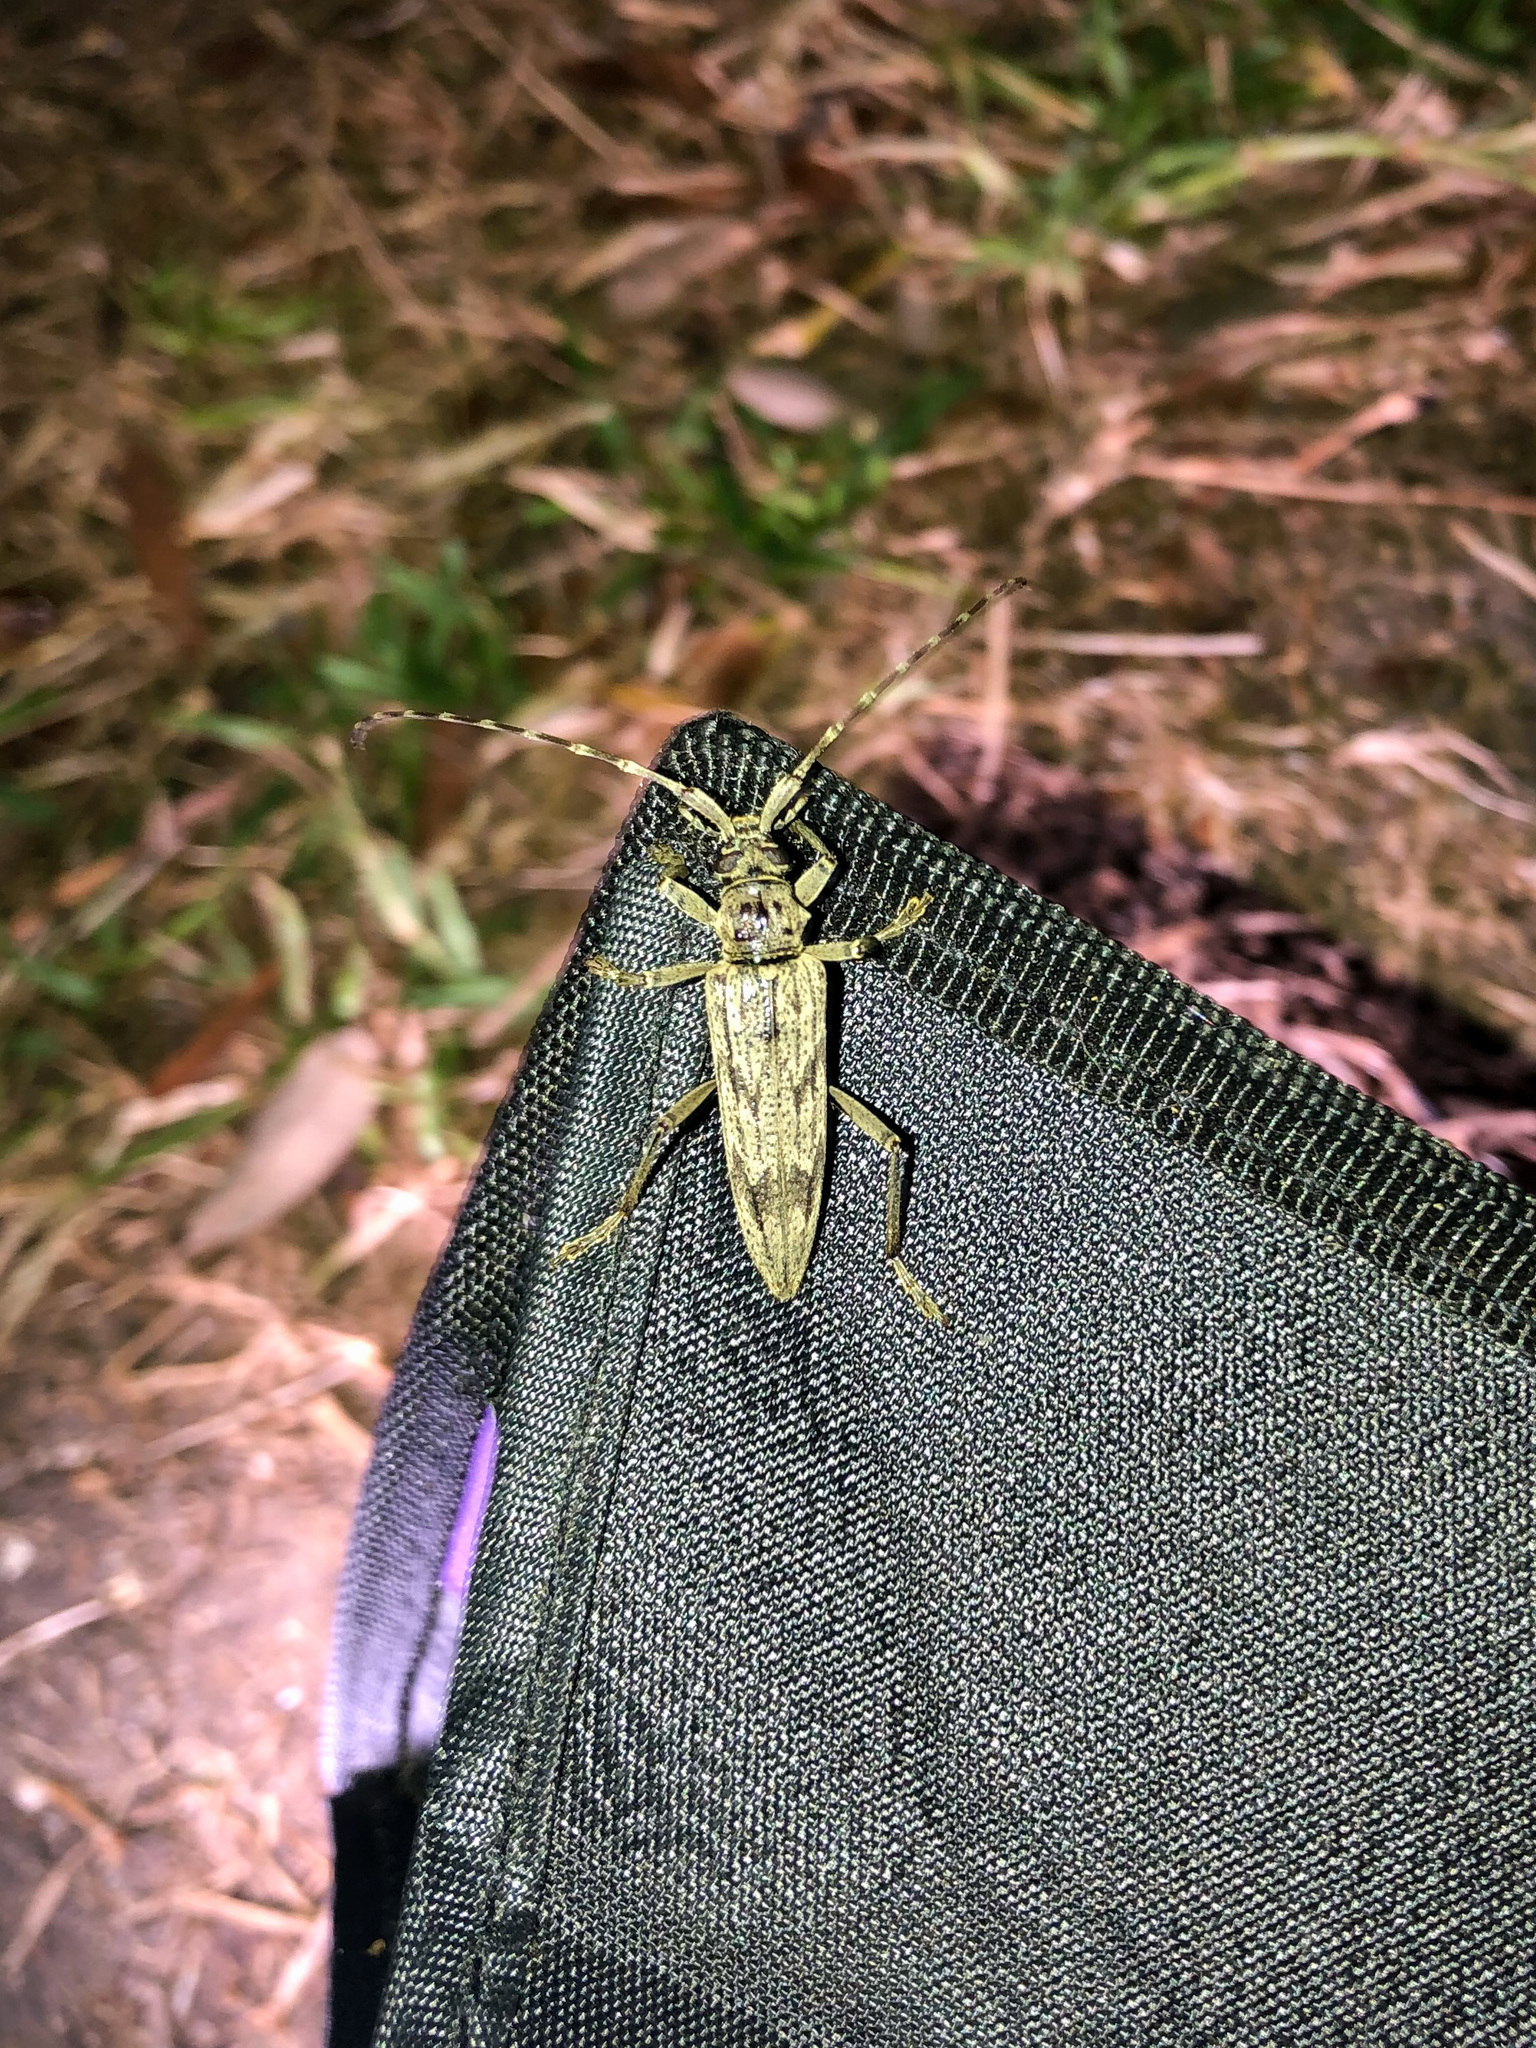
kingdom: Animalia
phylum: Arthropoda
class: Insecta
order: Coleoptera
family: Cerambycidae
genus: Elytrimitatrix
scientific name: Elytrimitatrix undata
